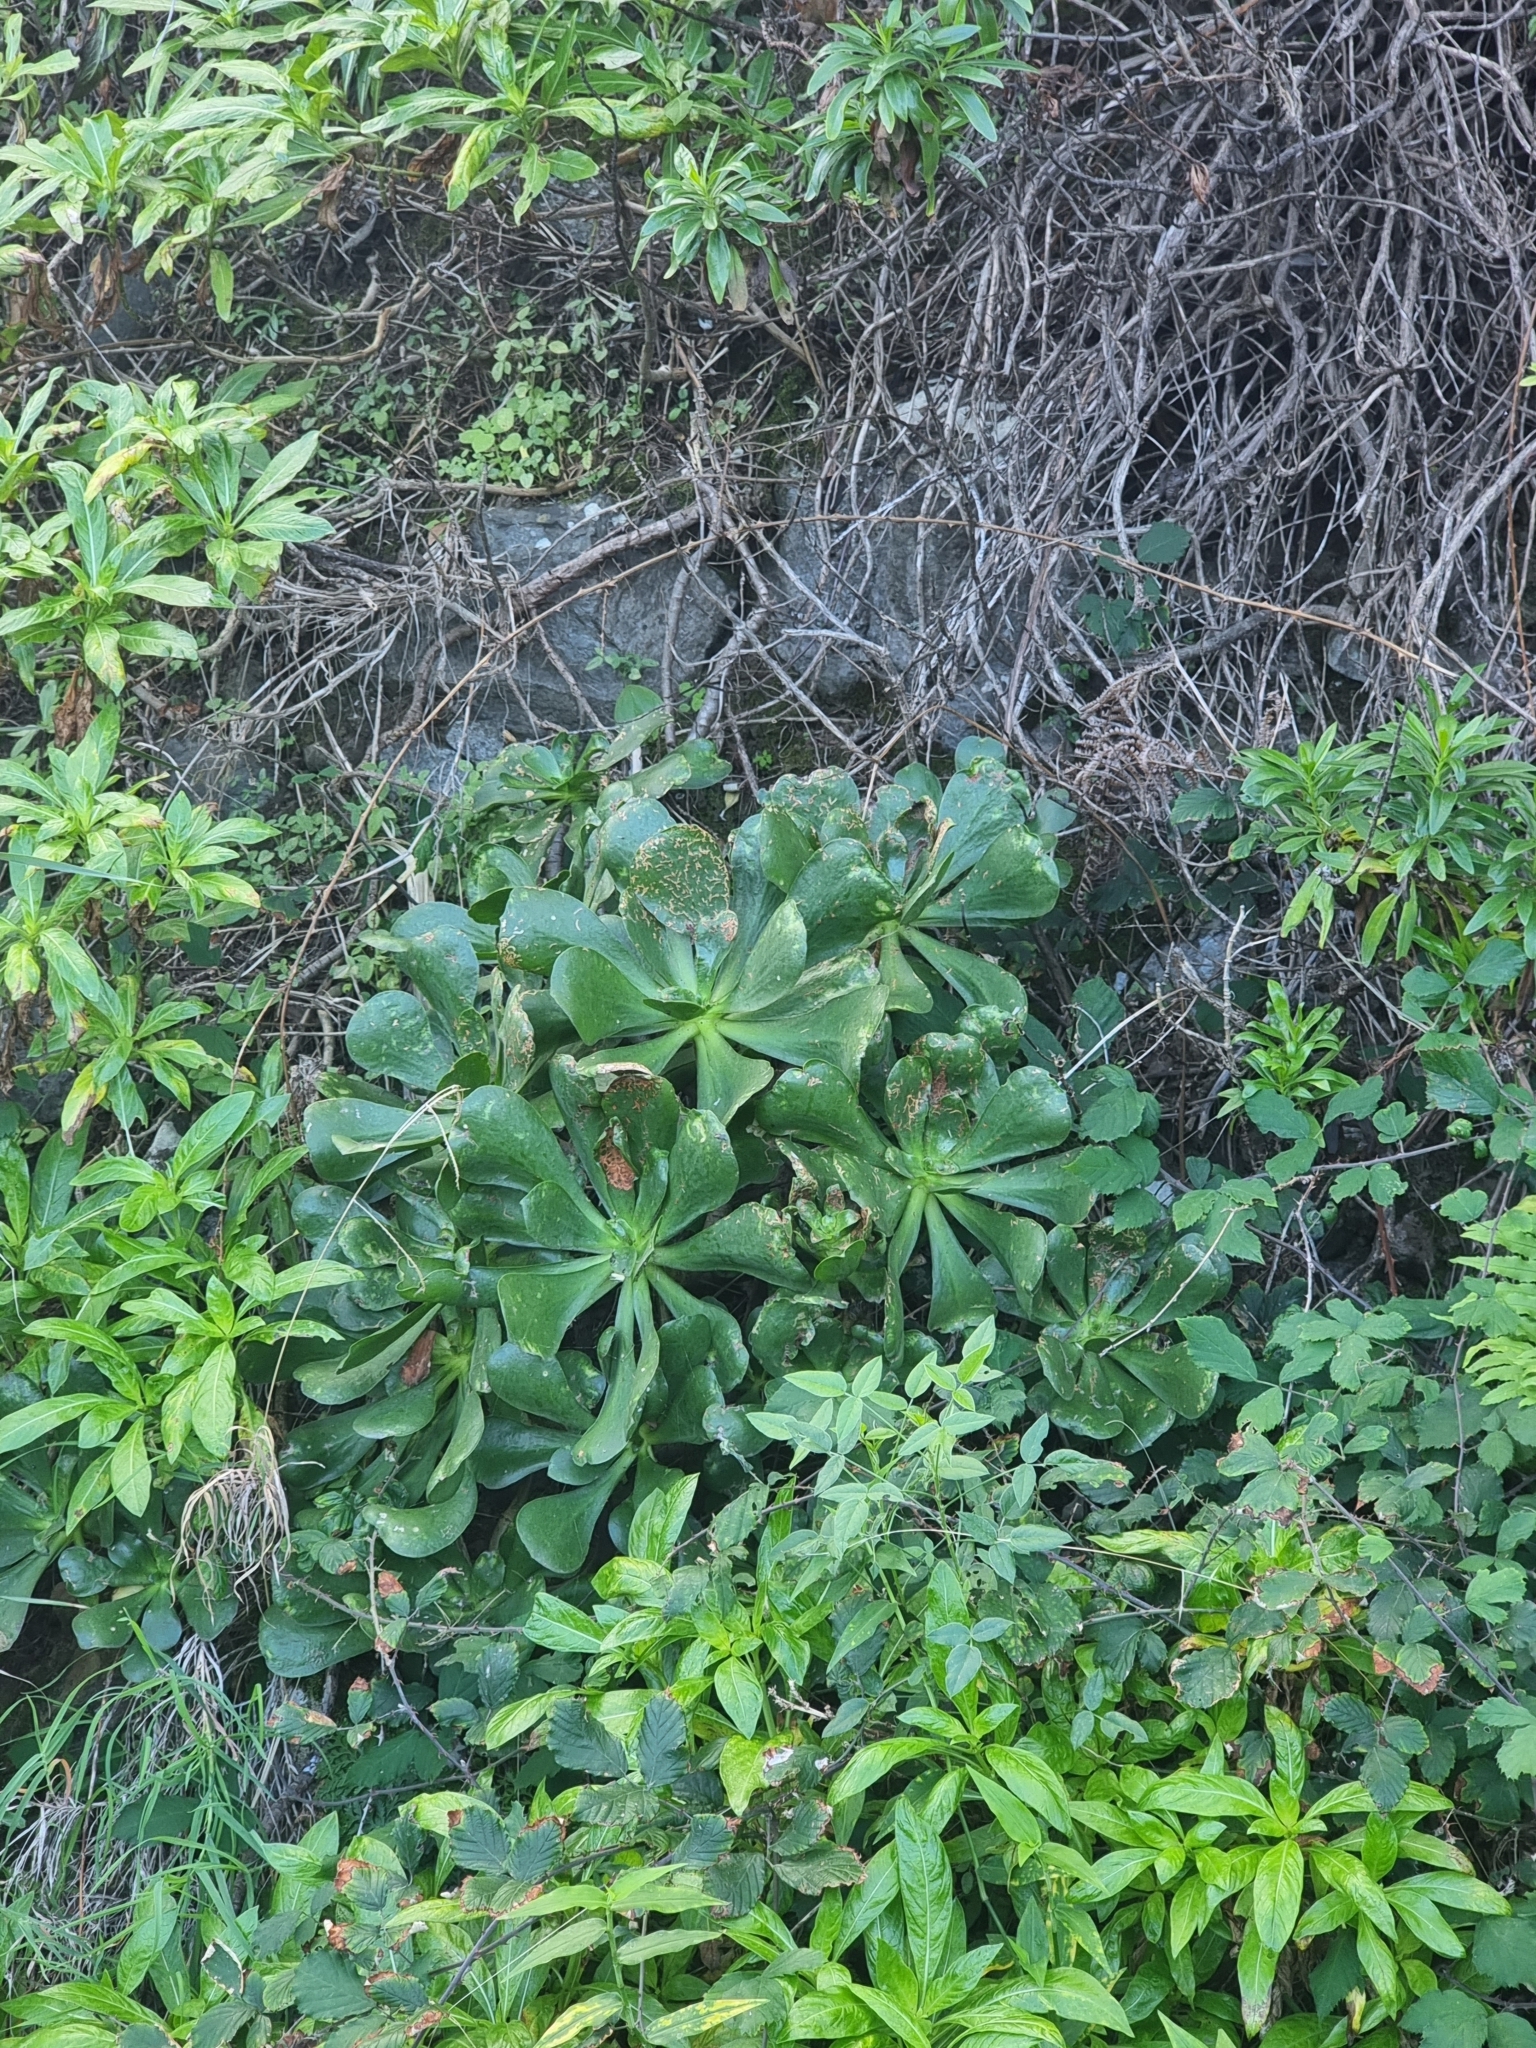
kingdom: Plantae
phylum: Tracheophyta
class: Magnoliopsida
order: Saxifragales
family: Crassulaceae
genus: Aeonium
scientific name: Aeonium glutinosum
